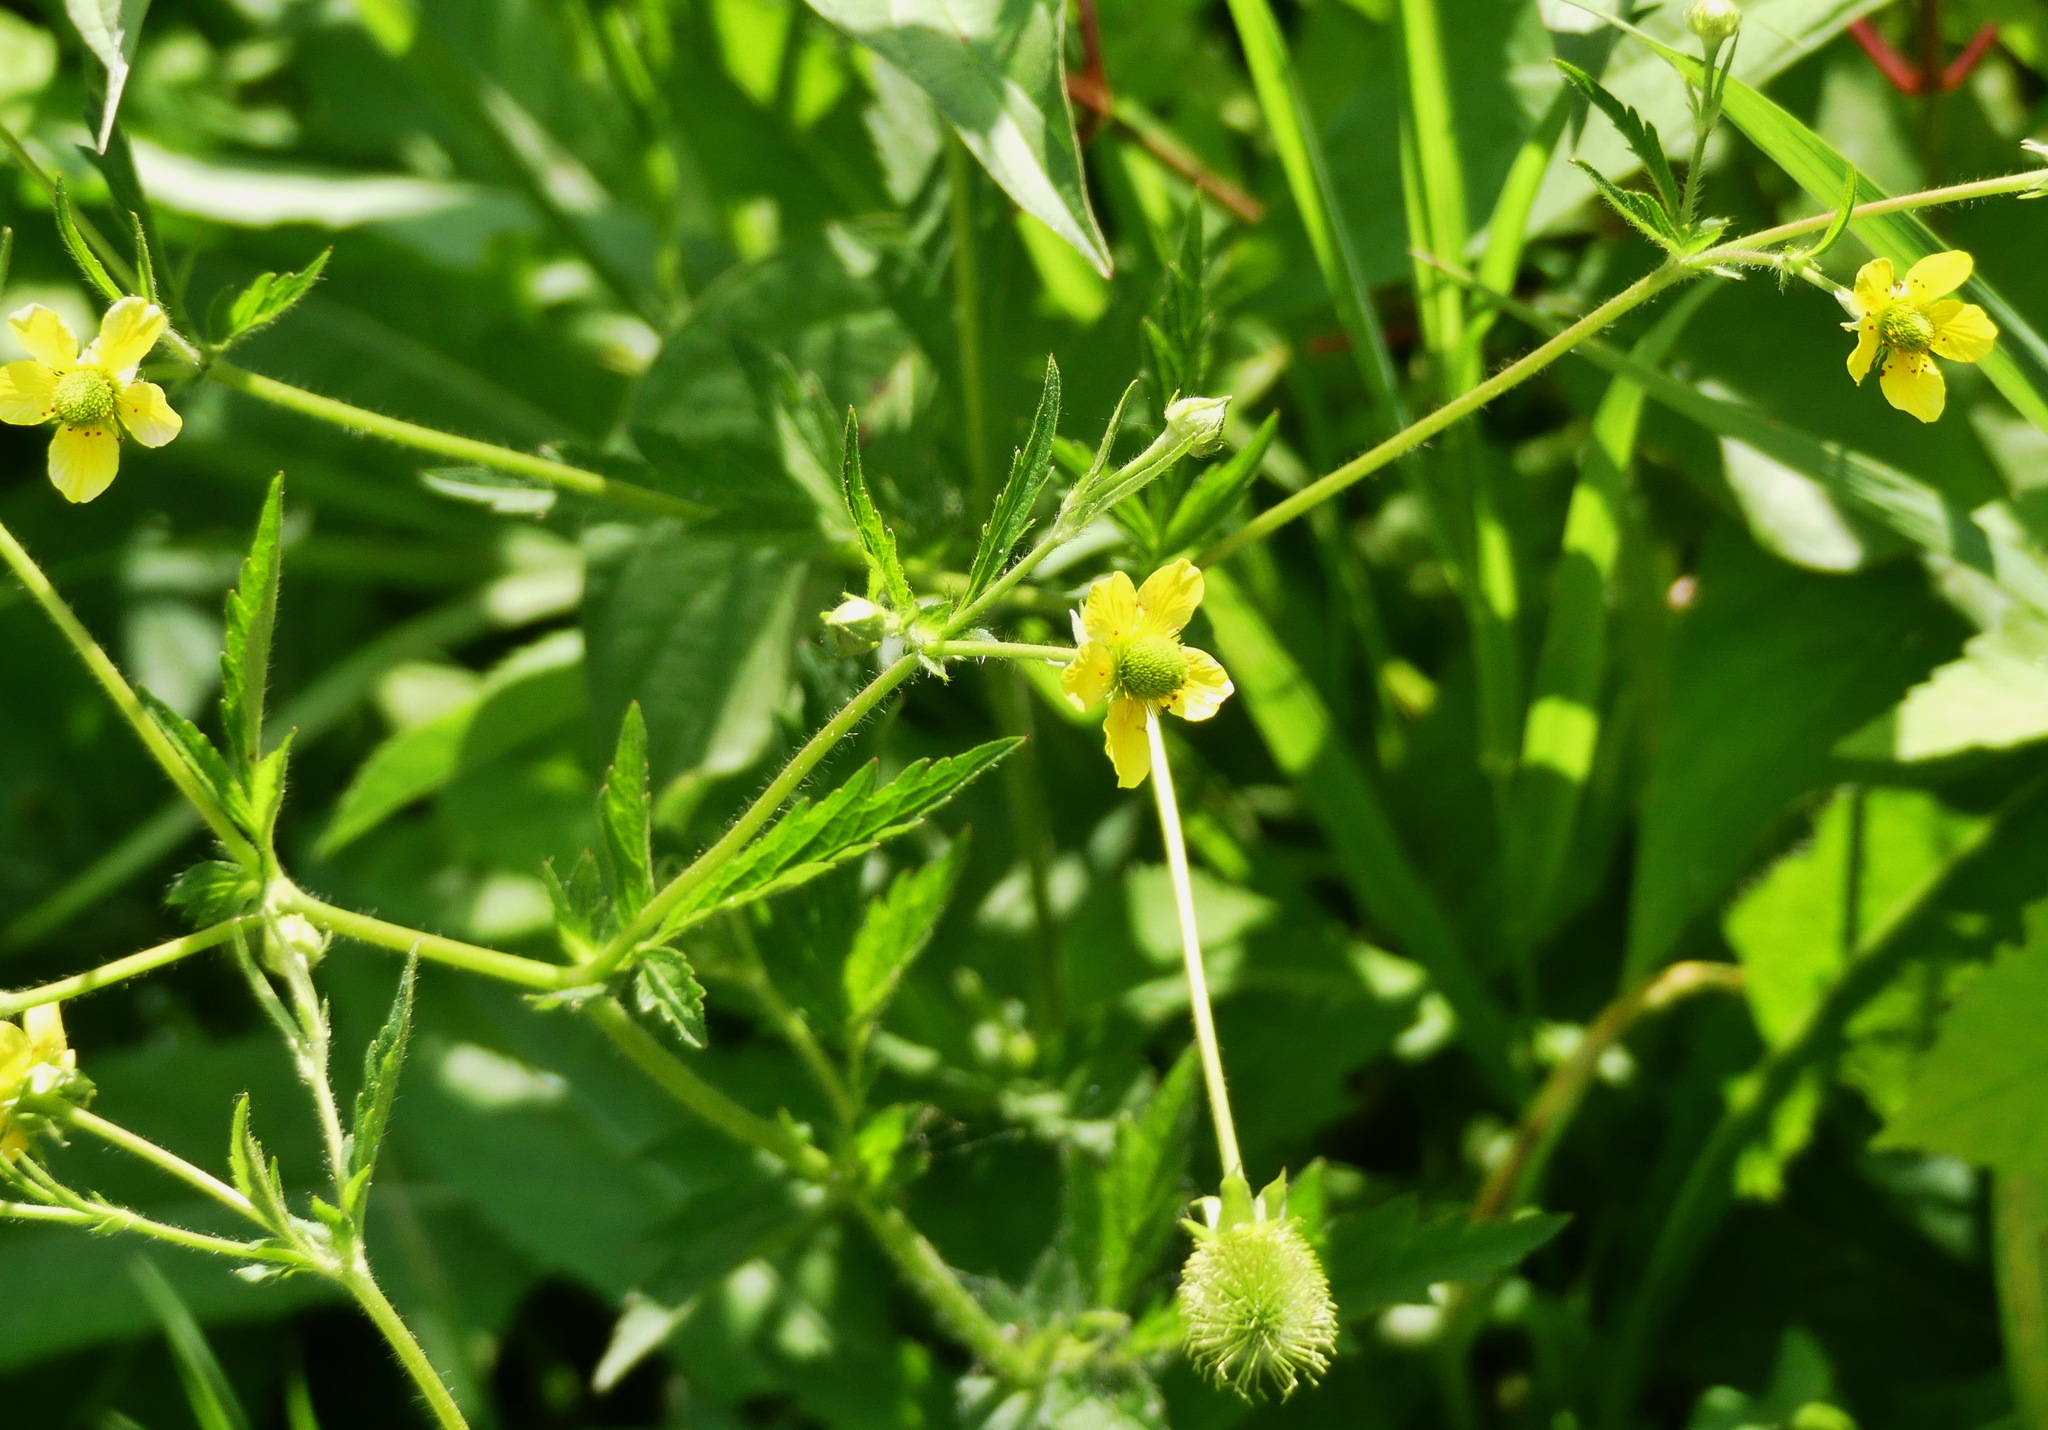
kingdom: Plantae
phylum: Tracheophyta
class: Magnoliopsida
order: Rosales
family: Rosaceae
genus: Geum
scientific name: Geum aleppicum
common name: Yellow avens
